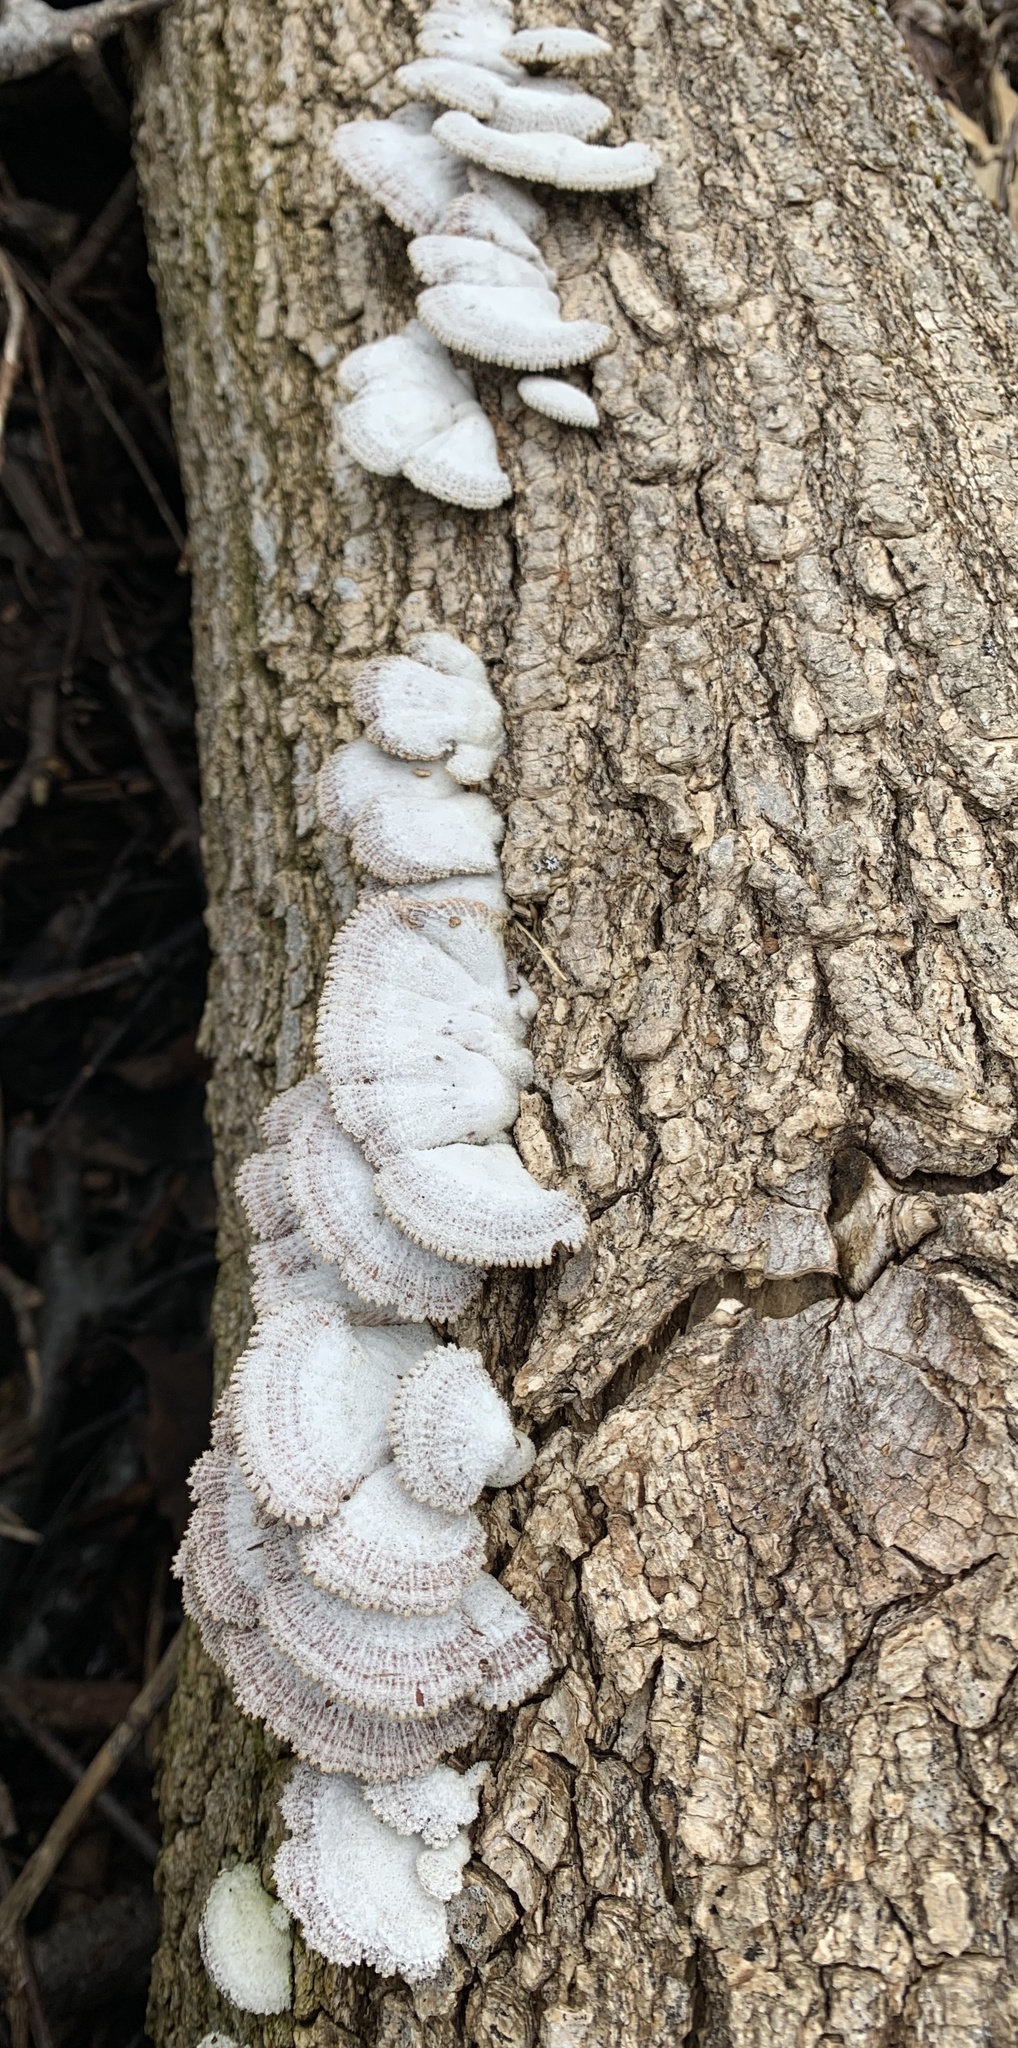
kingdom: Fungi
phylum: Basidiomycota
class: Agaricomycetes
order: Agaricales
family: Schizophyllaceae
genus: Schizophyllum
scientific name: Schizophyllum commune
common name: Common porecrust
